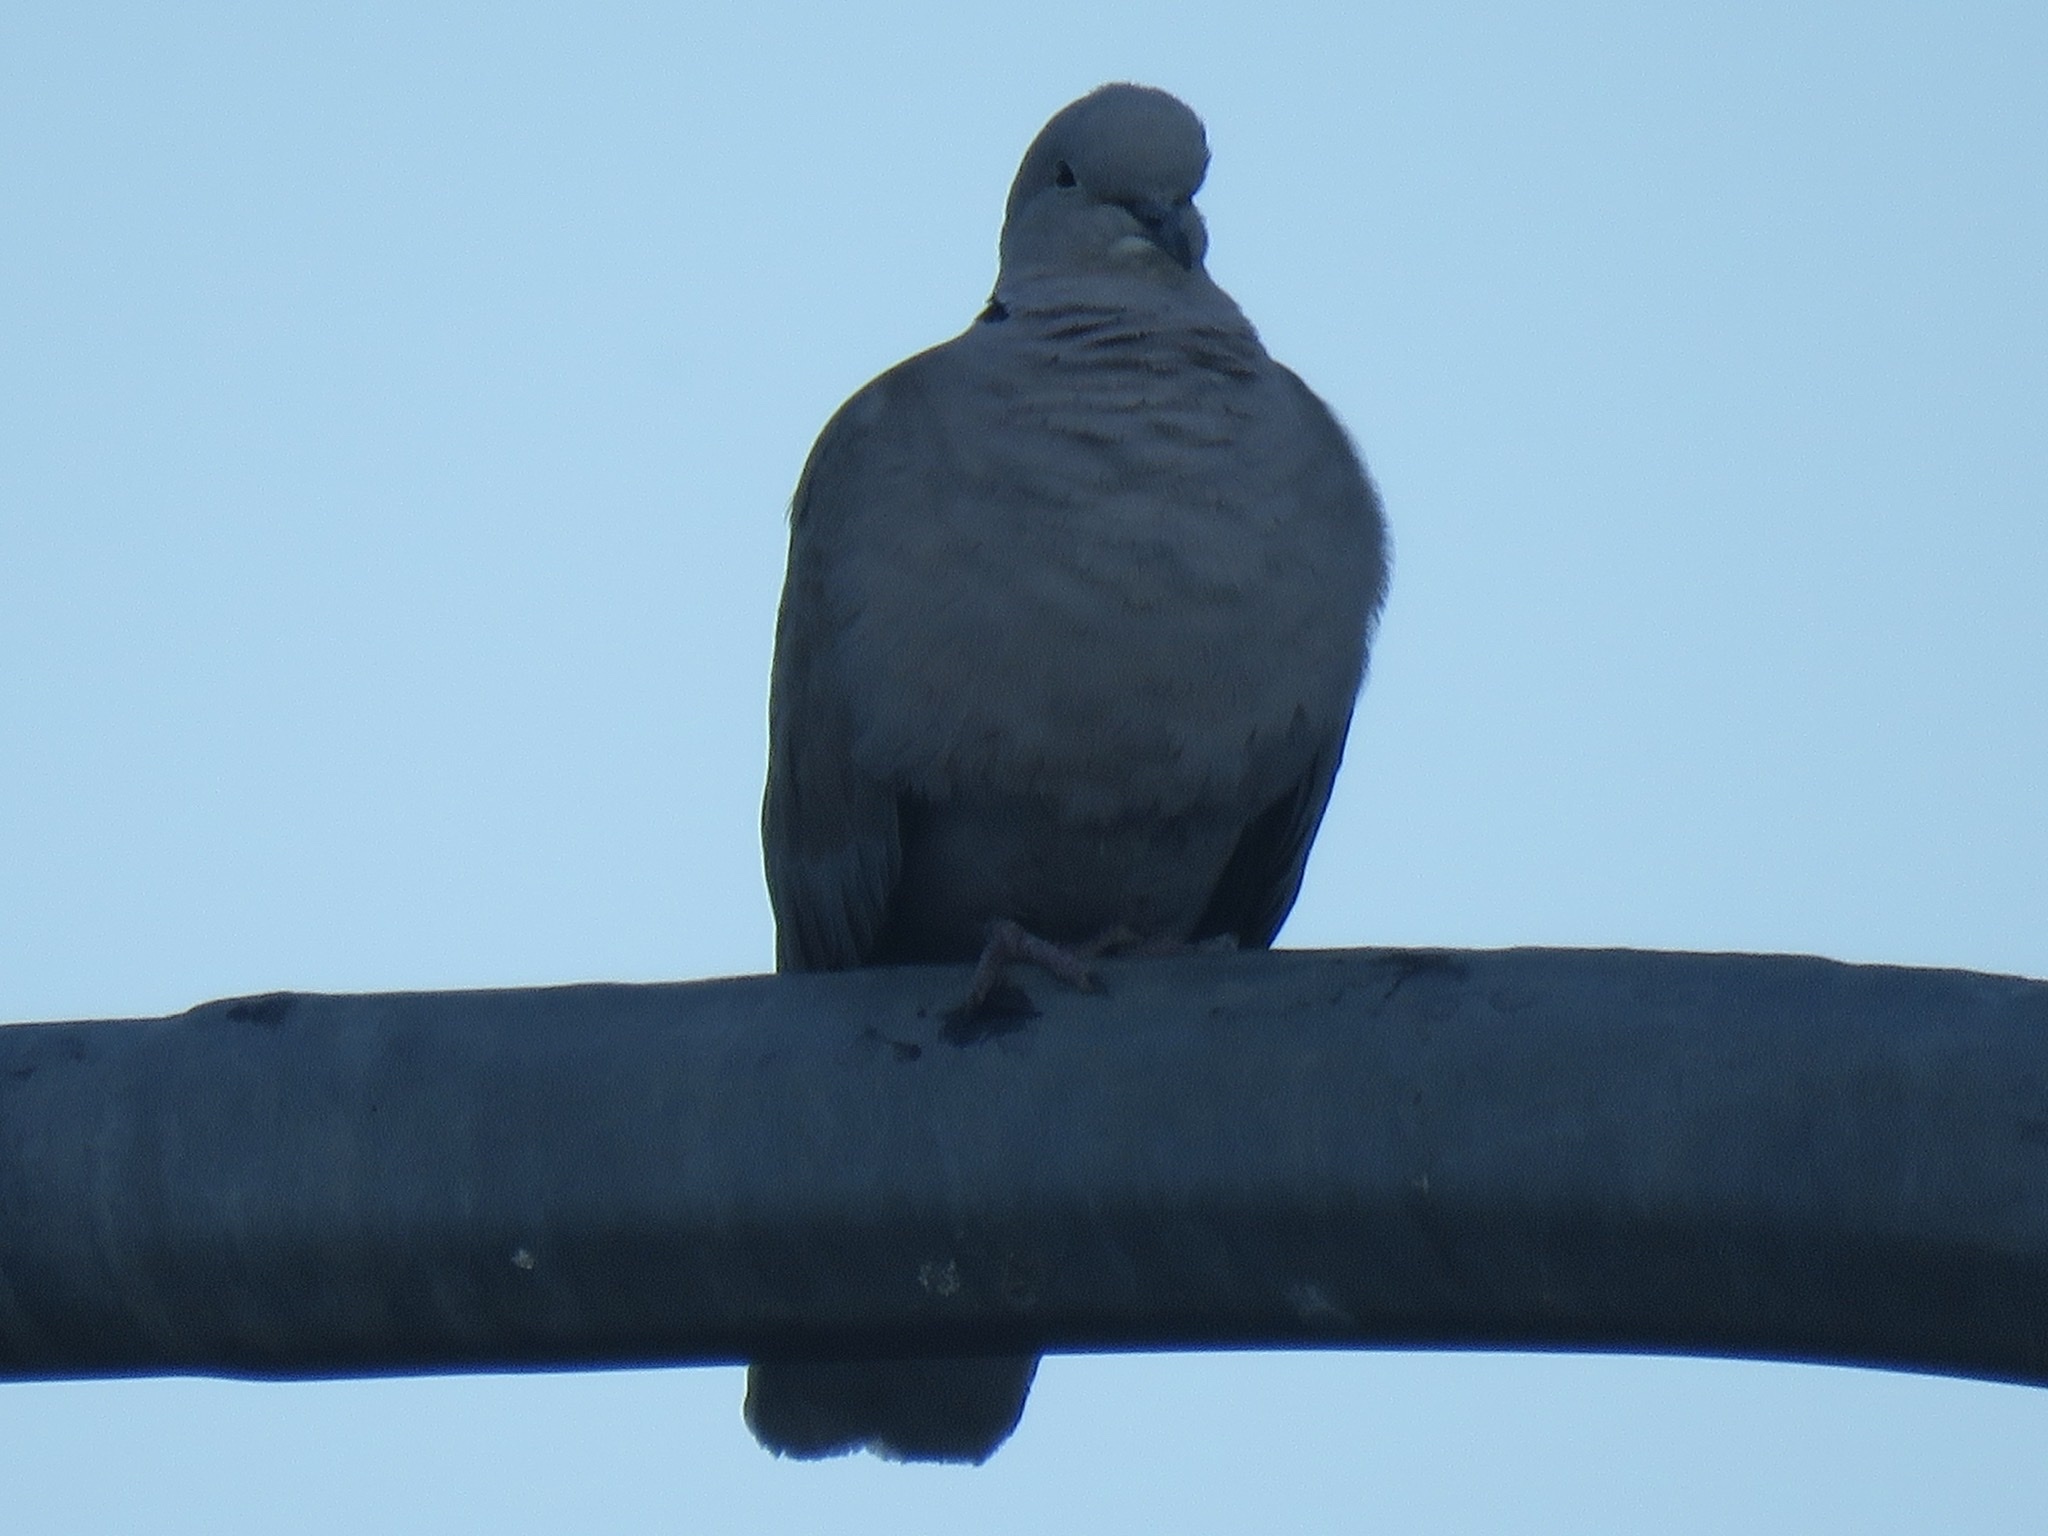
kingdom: Animalia
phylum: Chordata
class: Aves
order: Columbiformes
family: Columbidae
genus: Streptopelia
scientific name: Streptopelia decaocto
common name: Eurasian collared dove
